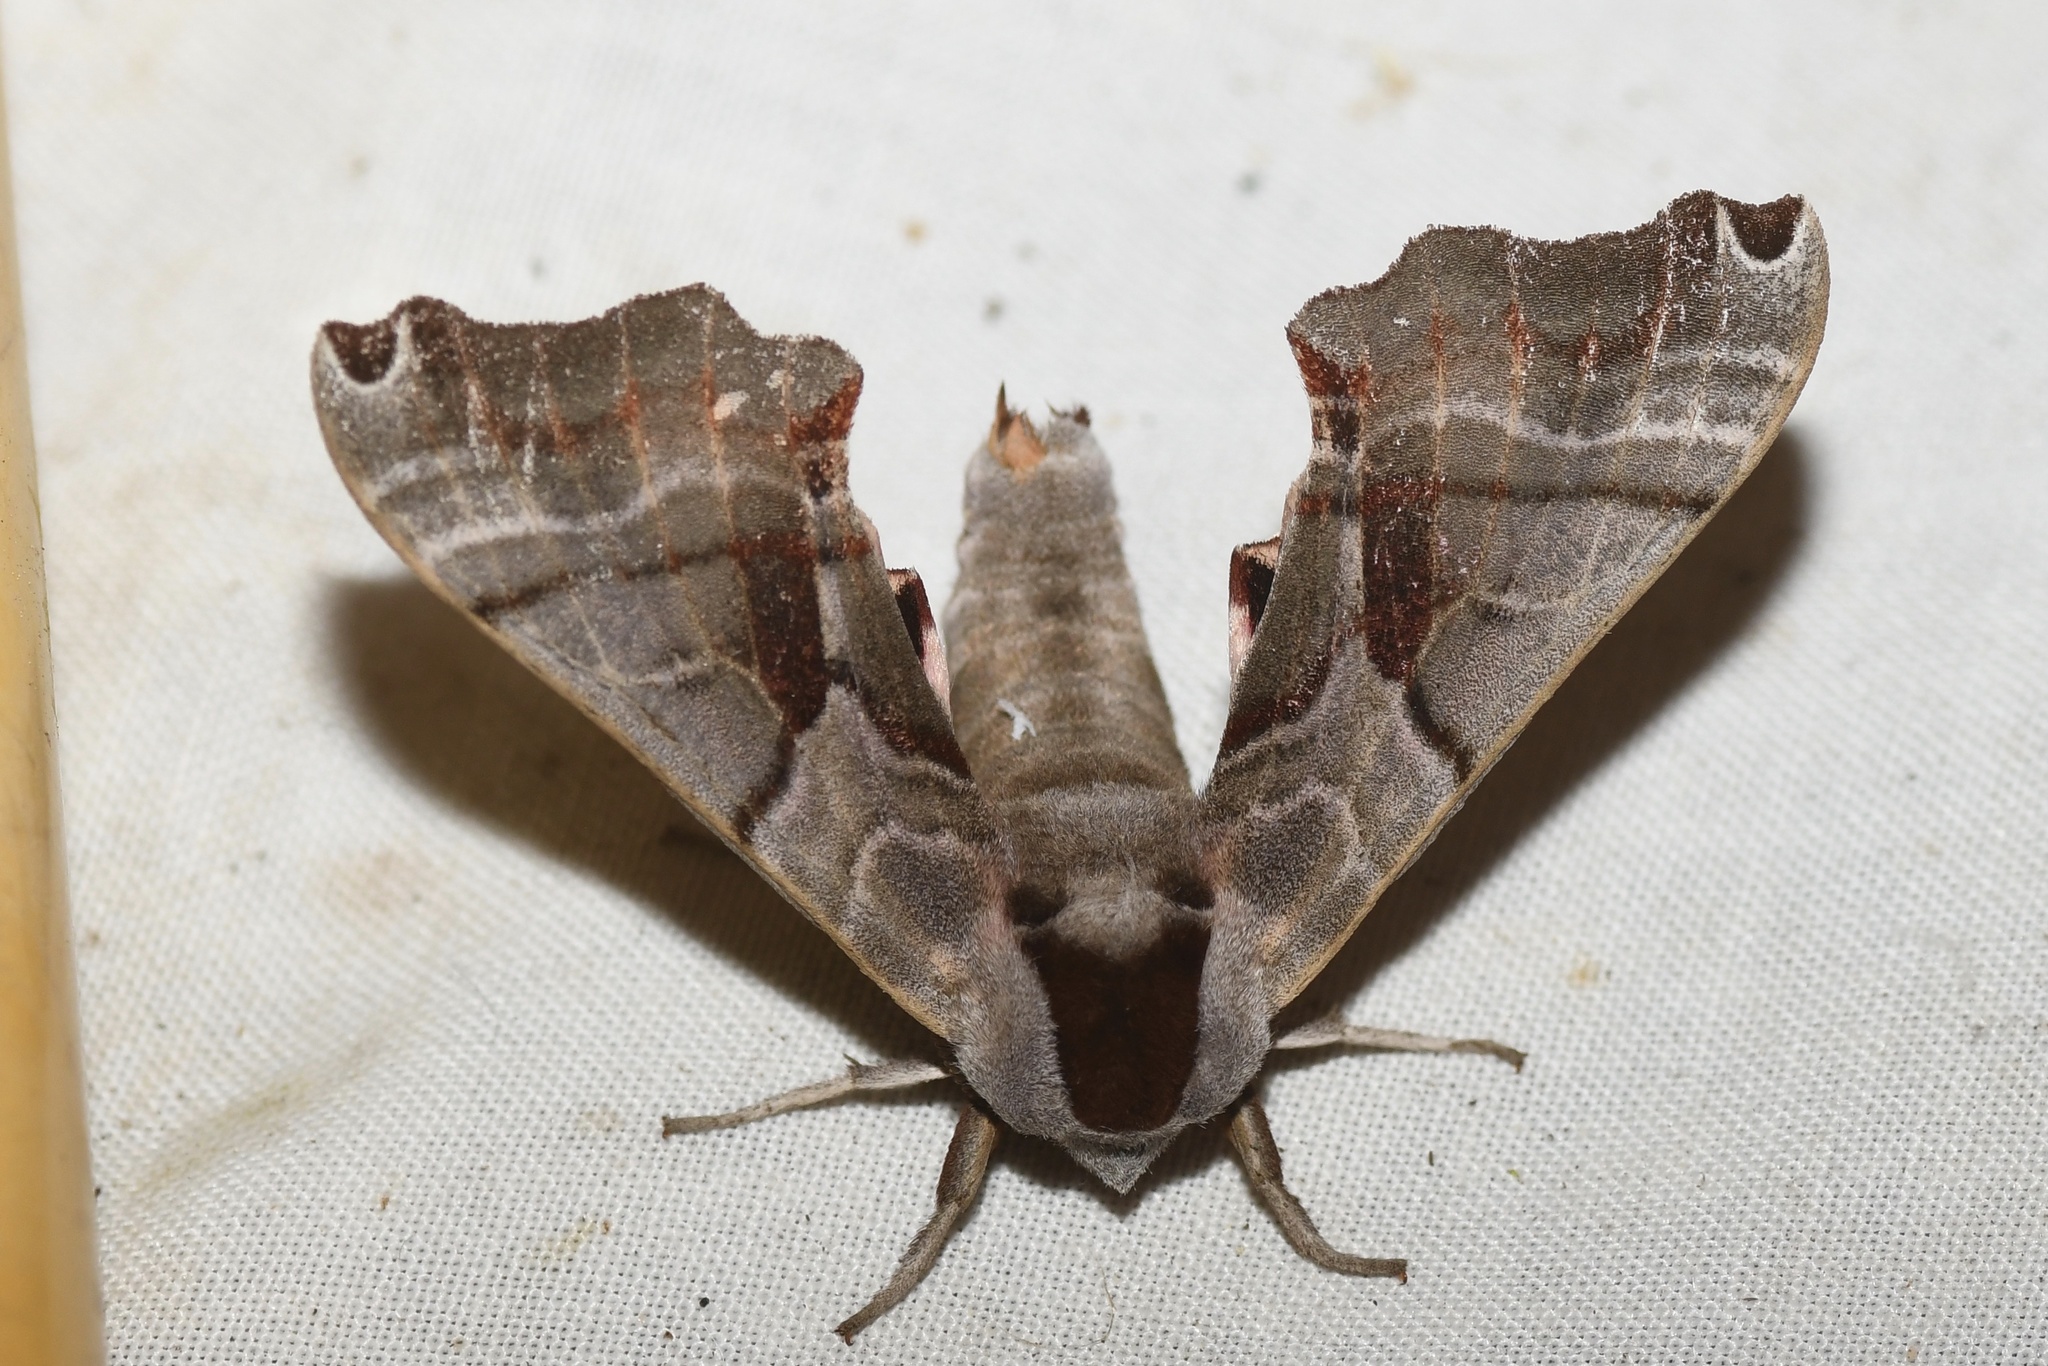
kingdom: Animalia
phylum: Arthropoda
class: Insecta
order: Lepidoptera
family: Sphingidae
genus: Smerinthus
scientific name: Smerinthus jamaicensis
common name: Twin spotted sphinx
